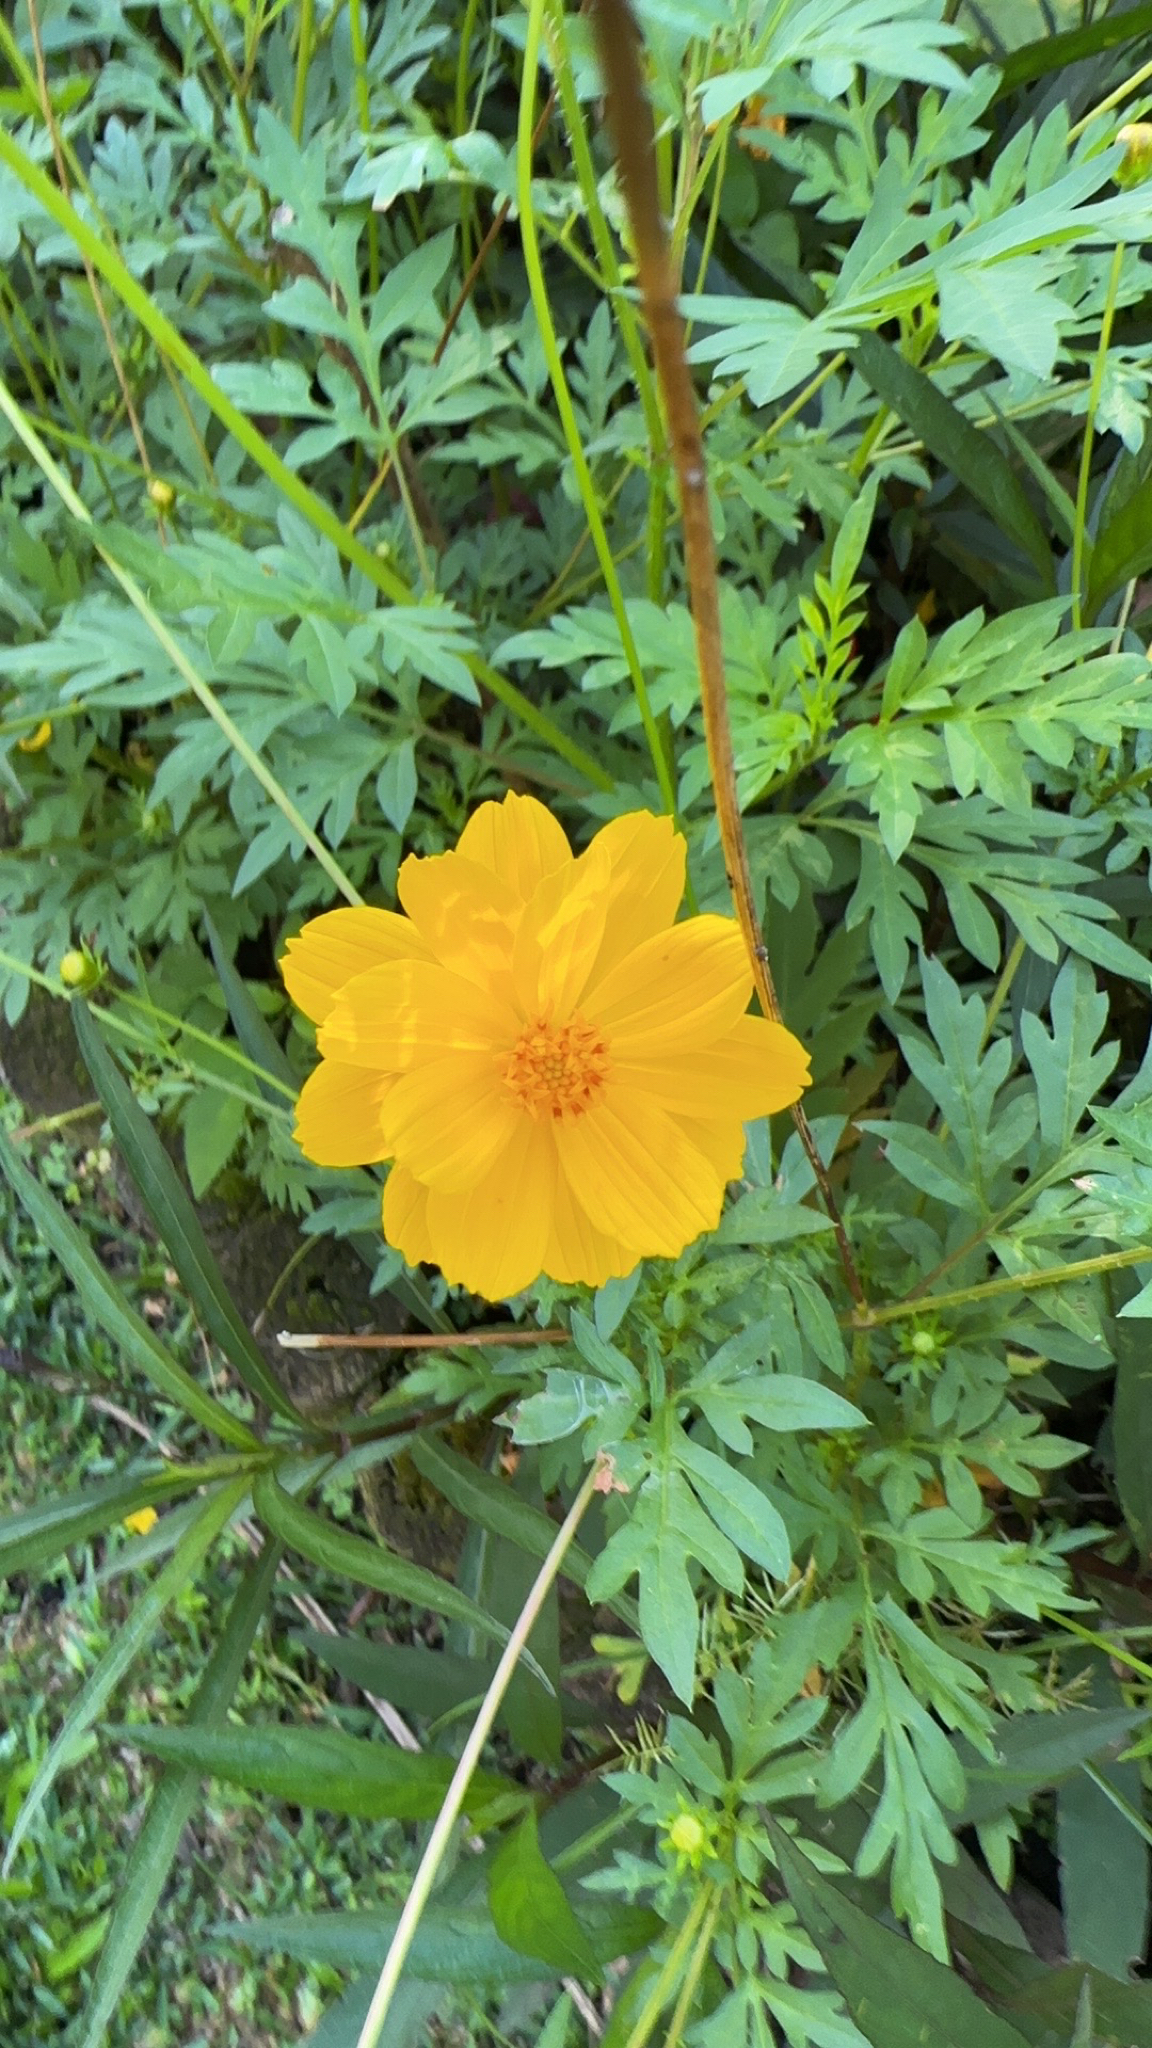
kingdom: Plantae
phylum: Tracheophyta
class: Magnoliopsida
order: Asterales
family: Asteraceae
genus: Cosmos
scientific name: Cosmos sulphureus
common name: Sulphur cosmos
